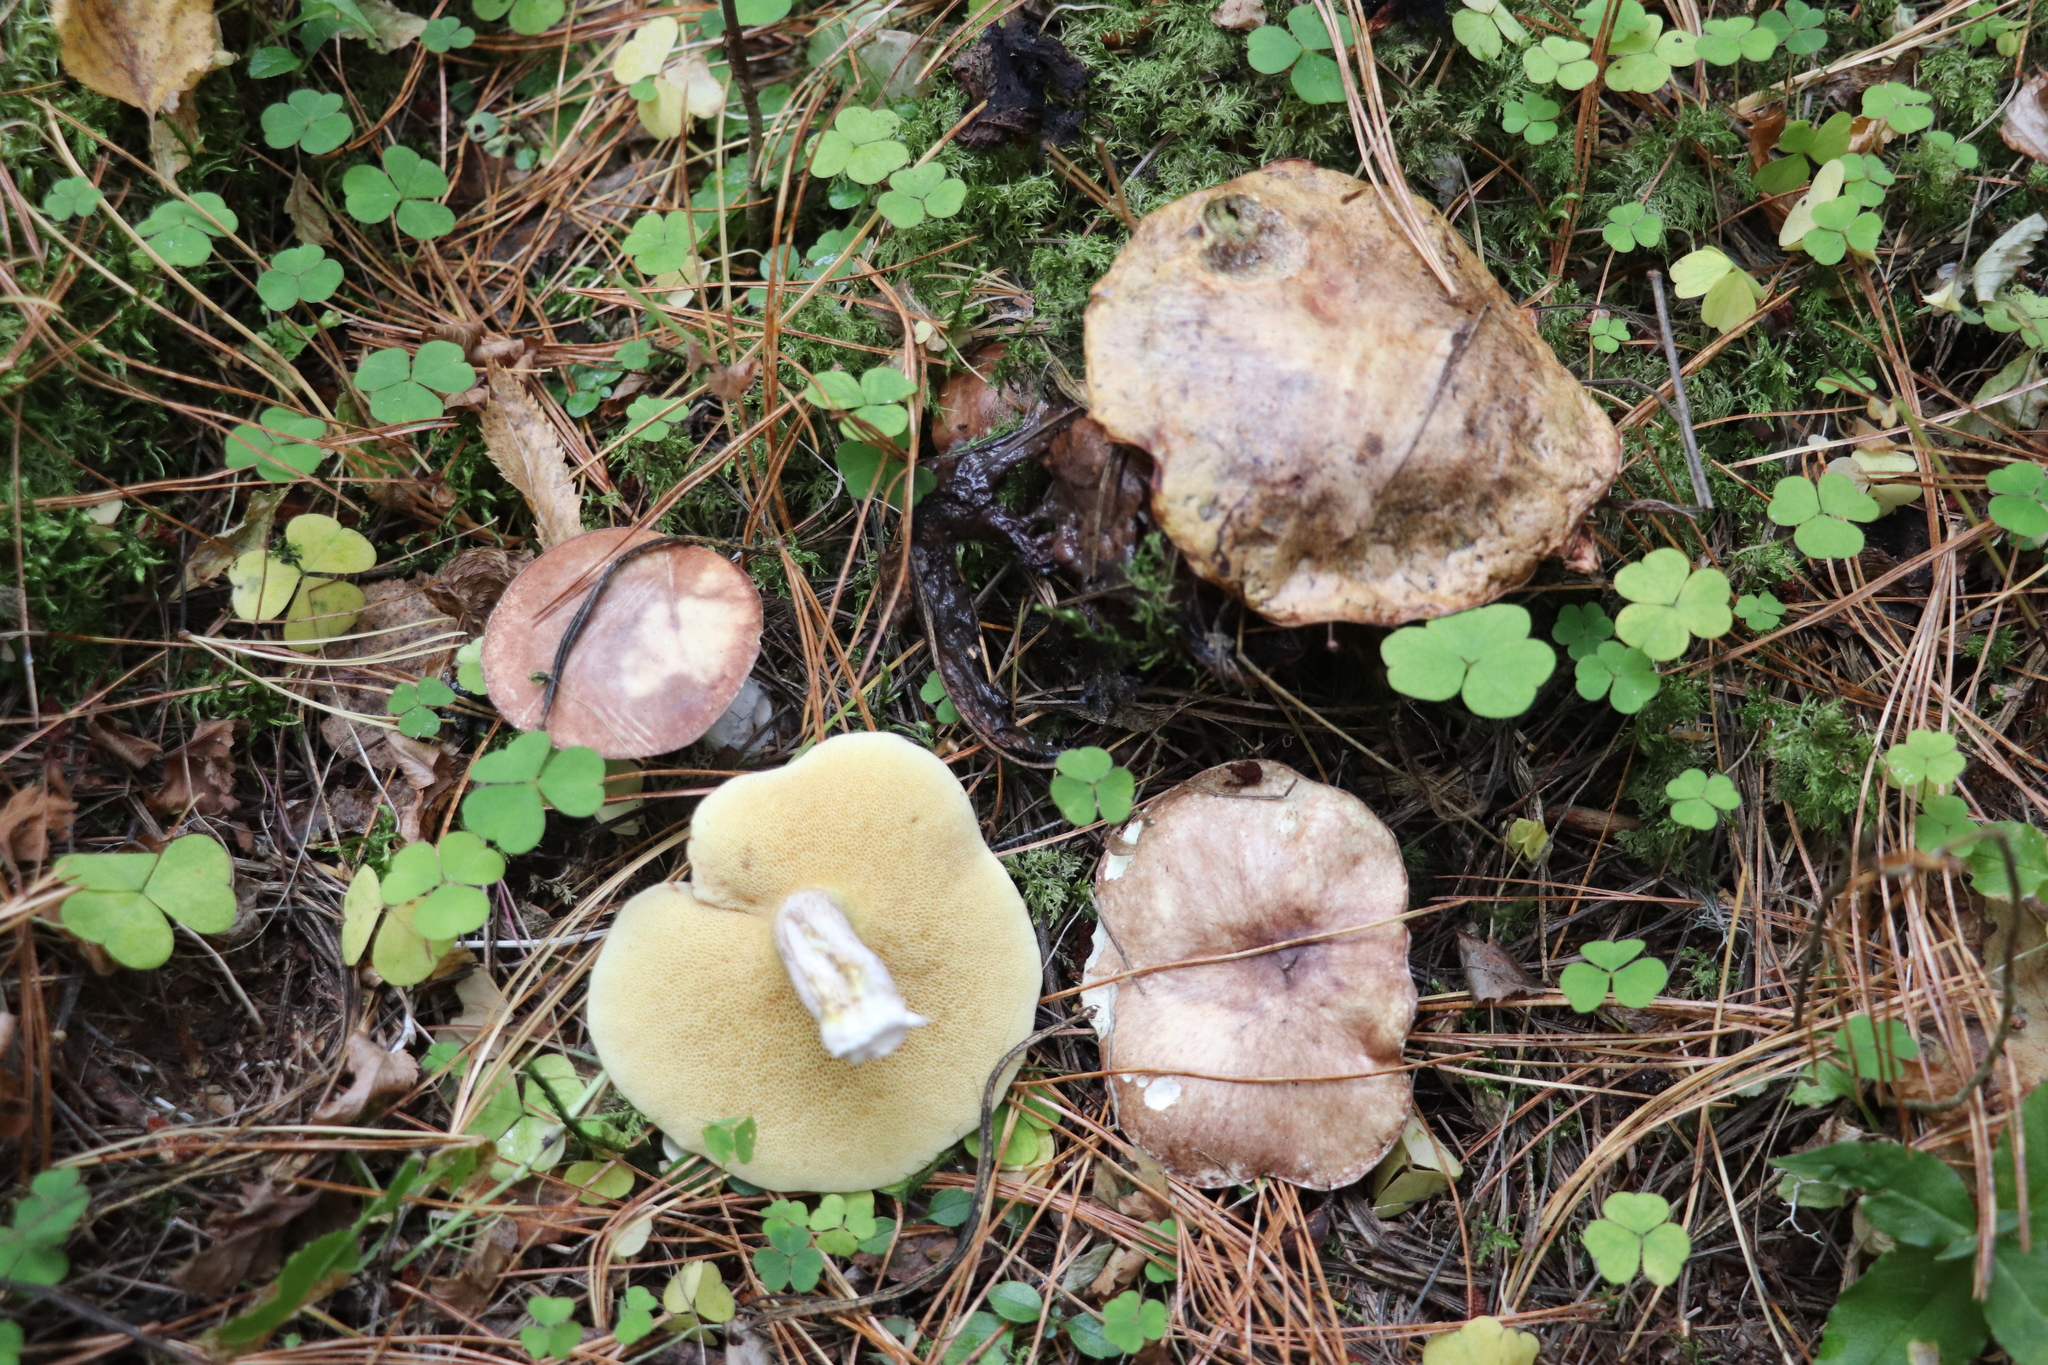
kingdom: Fungi
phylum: Basidiomycota
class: Agaricomycetes
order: Boletales
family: Suillaceae
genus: Suillus
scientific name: Suillus placidus
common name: Slippery white bolete
